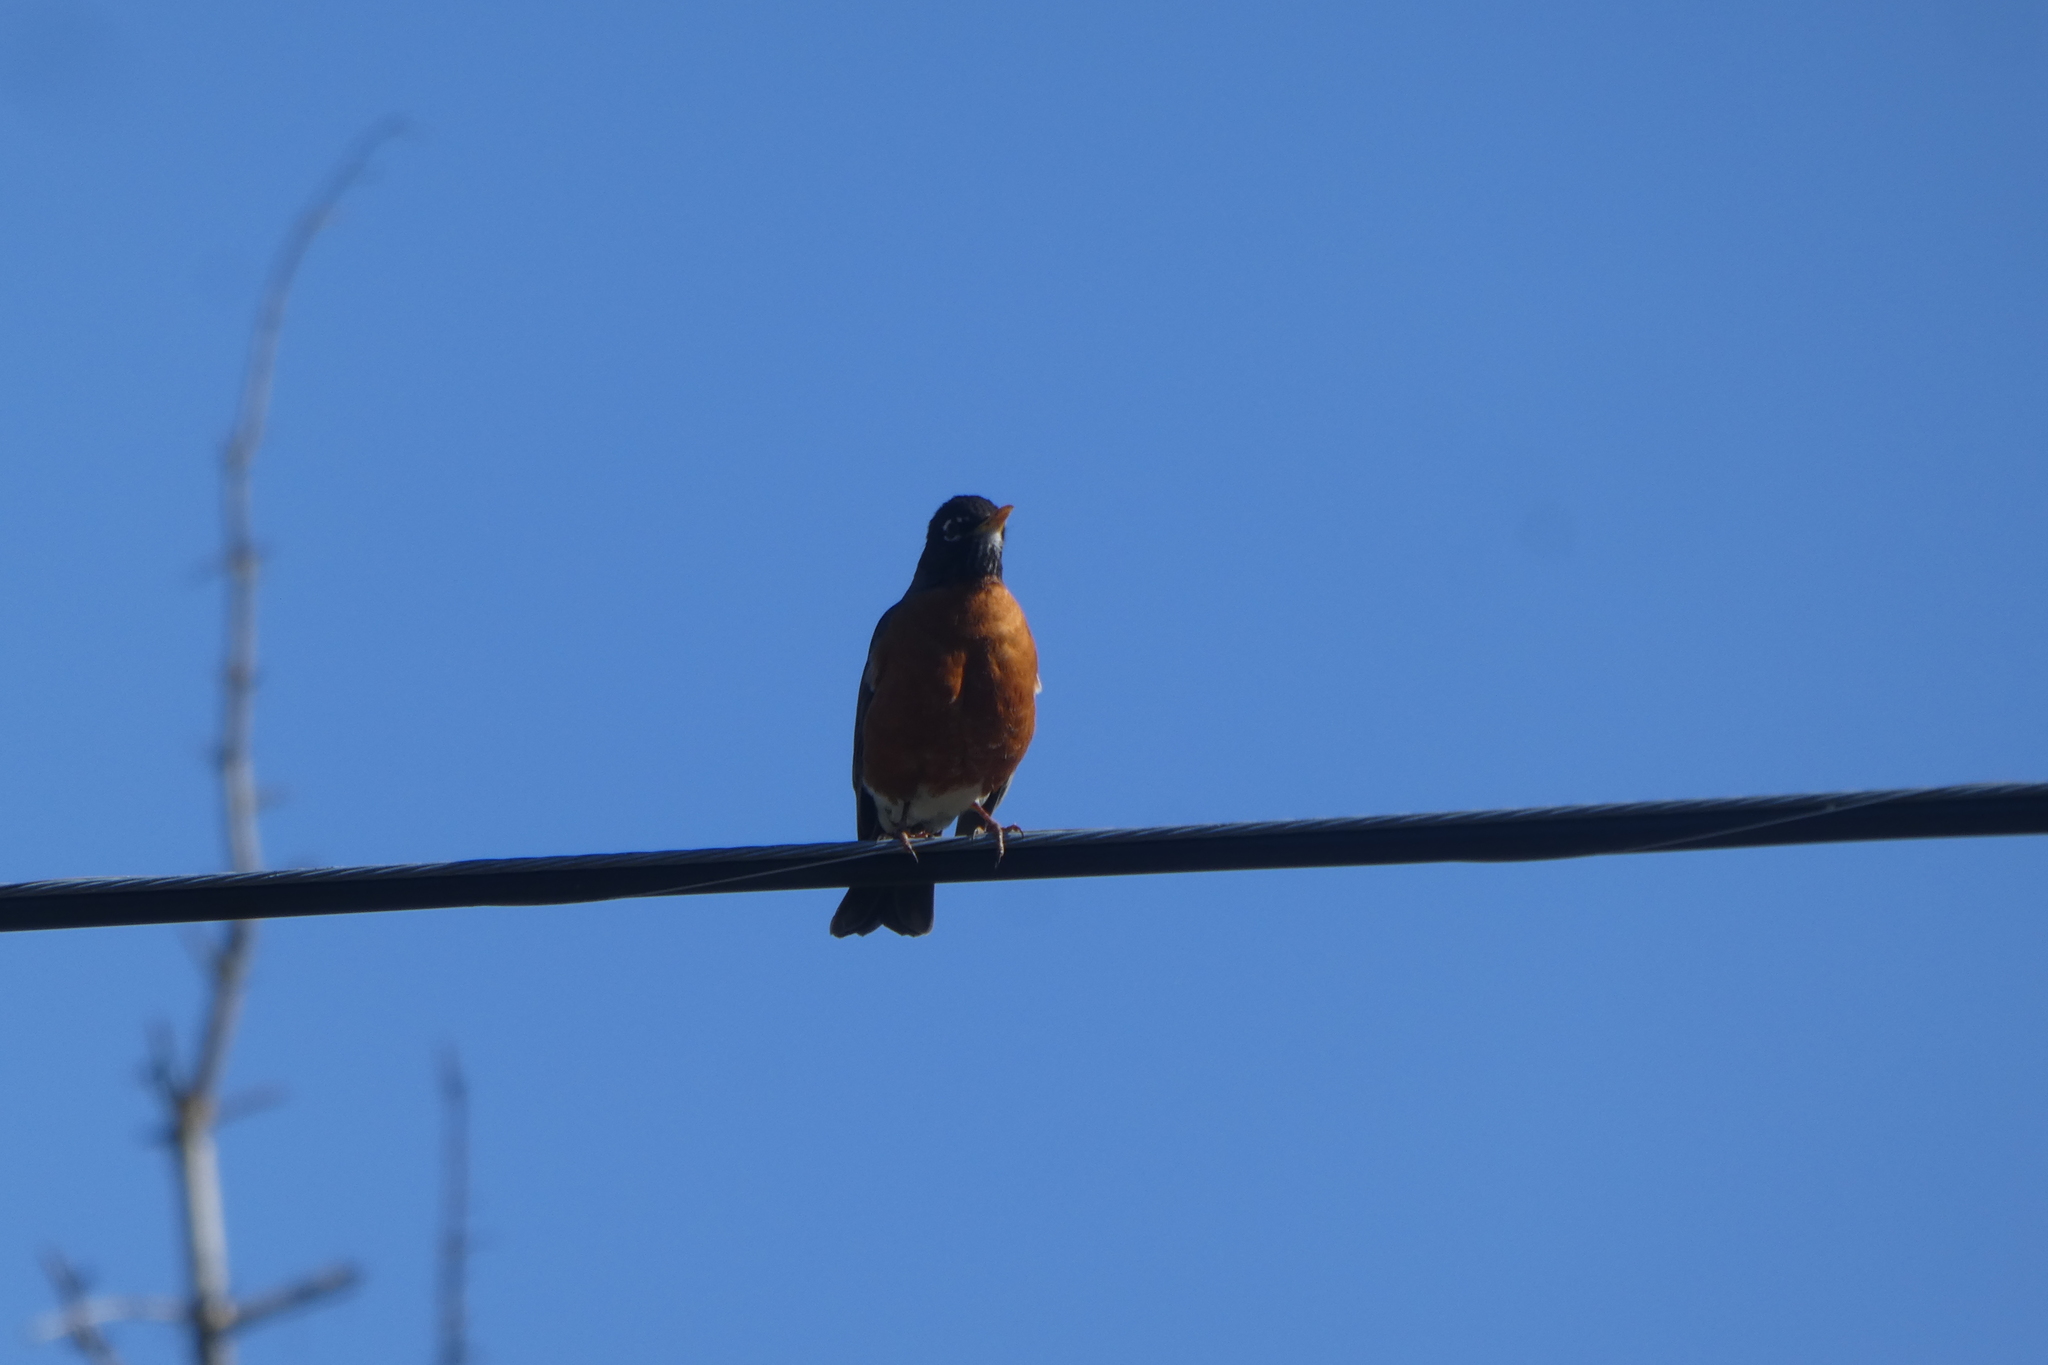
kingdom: Animalia
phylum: Chordata
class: Aves
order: Passeriformes
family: Turdidae
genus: Turdus
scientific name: Turdus migratorius
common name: American robin
